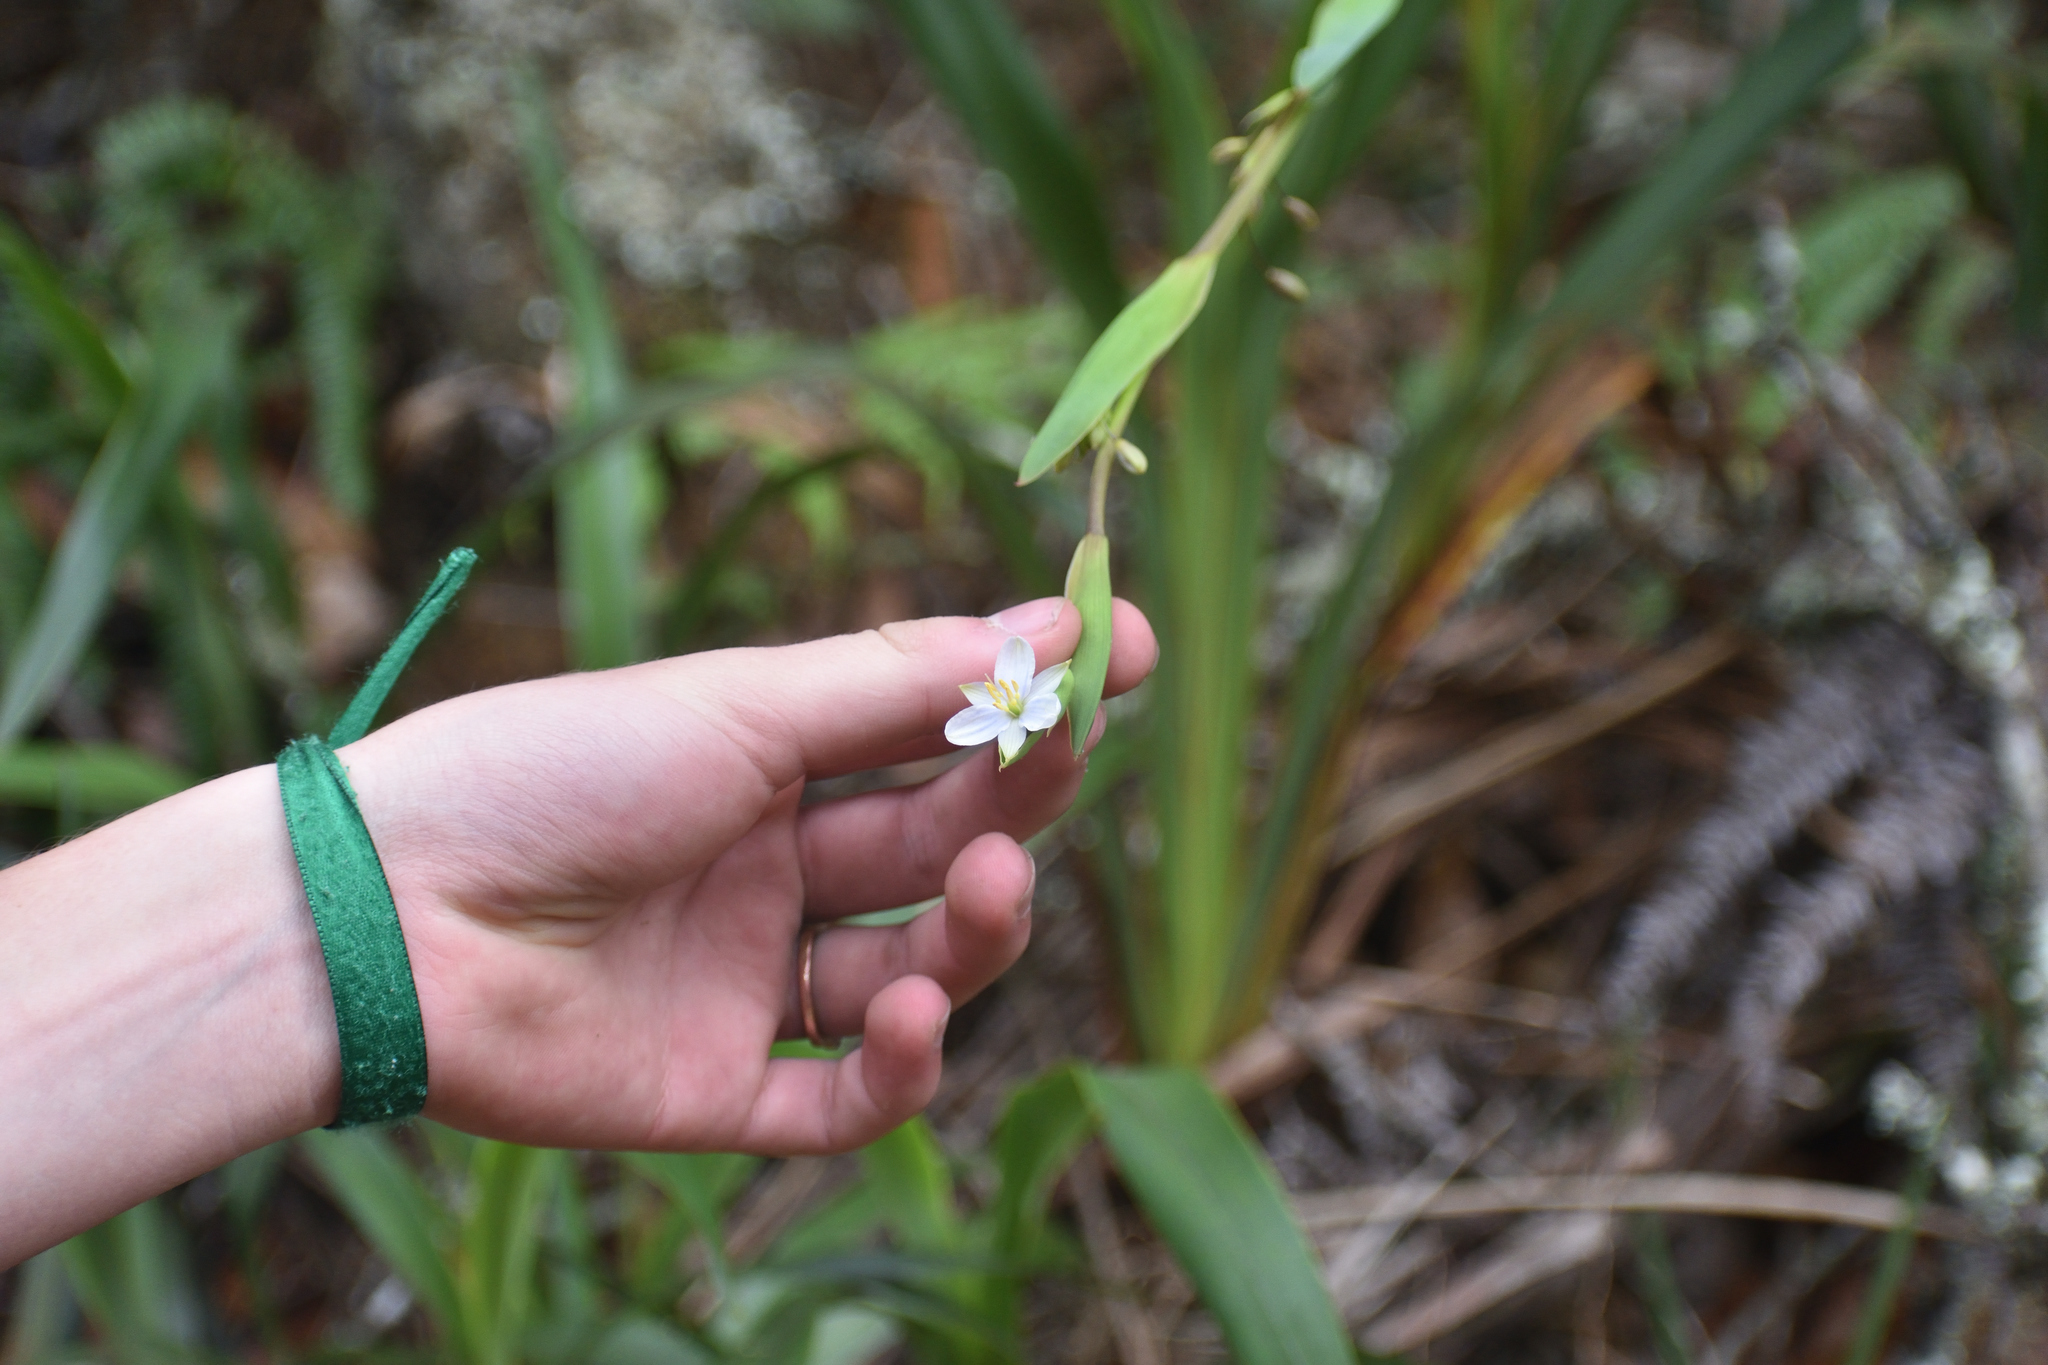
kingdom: Plantae
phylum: Tracheophyta
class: Liliopsida
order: Asparagales
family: Asphodelaceae
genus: Excremis
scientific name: Excremis coarctata
